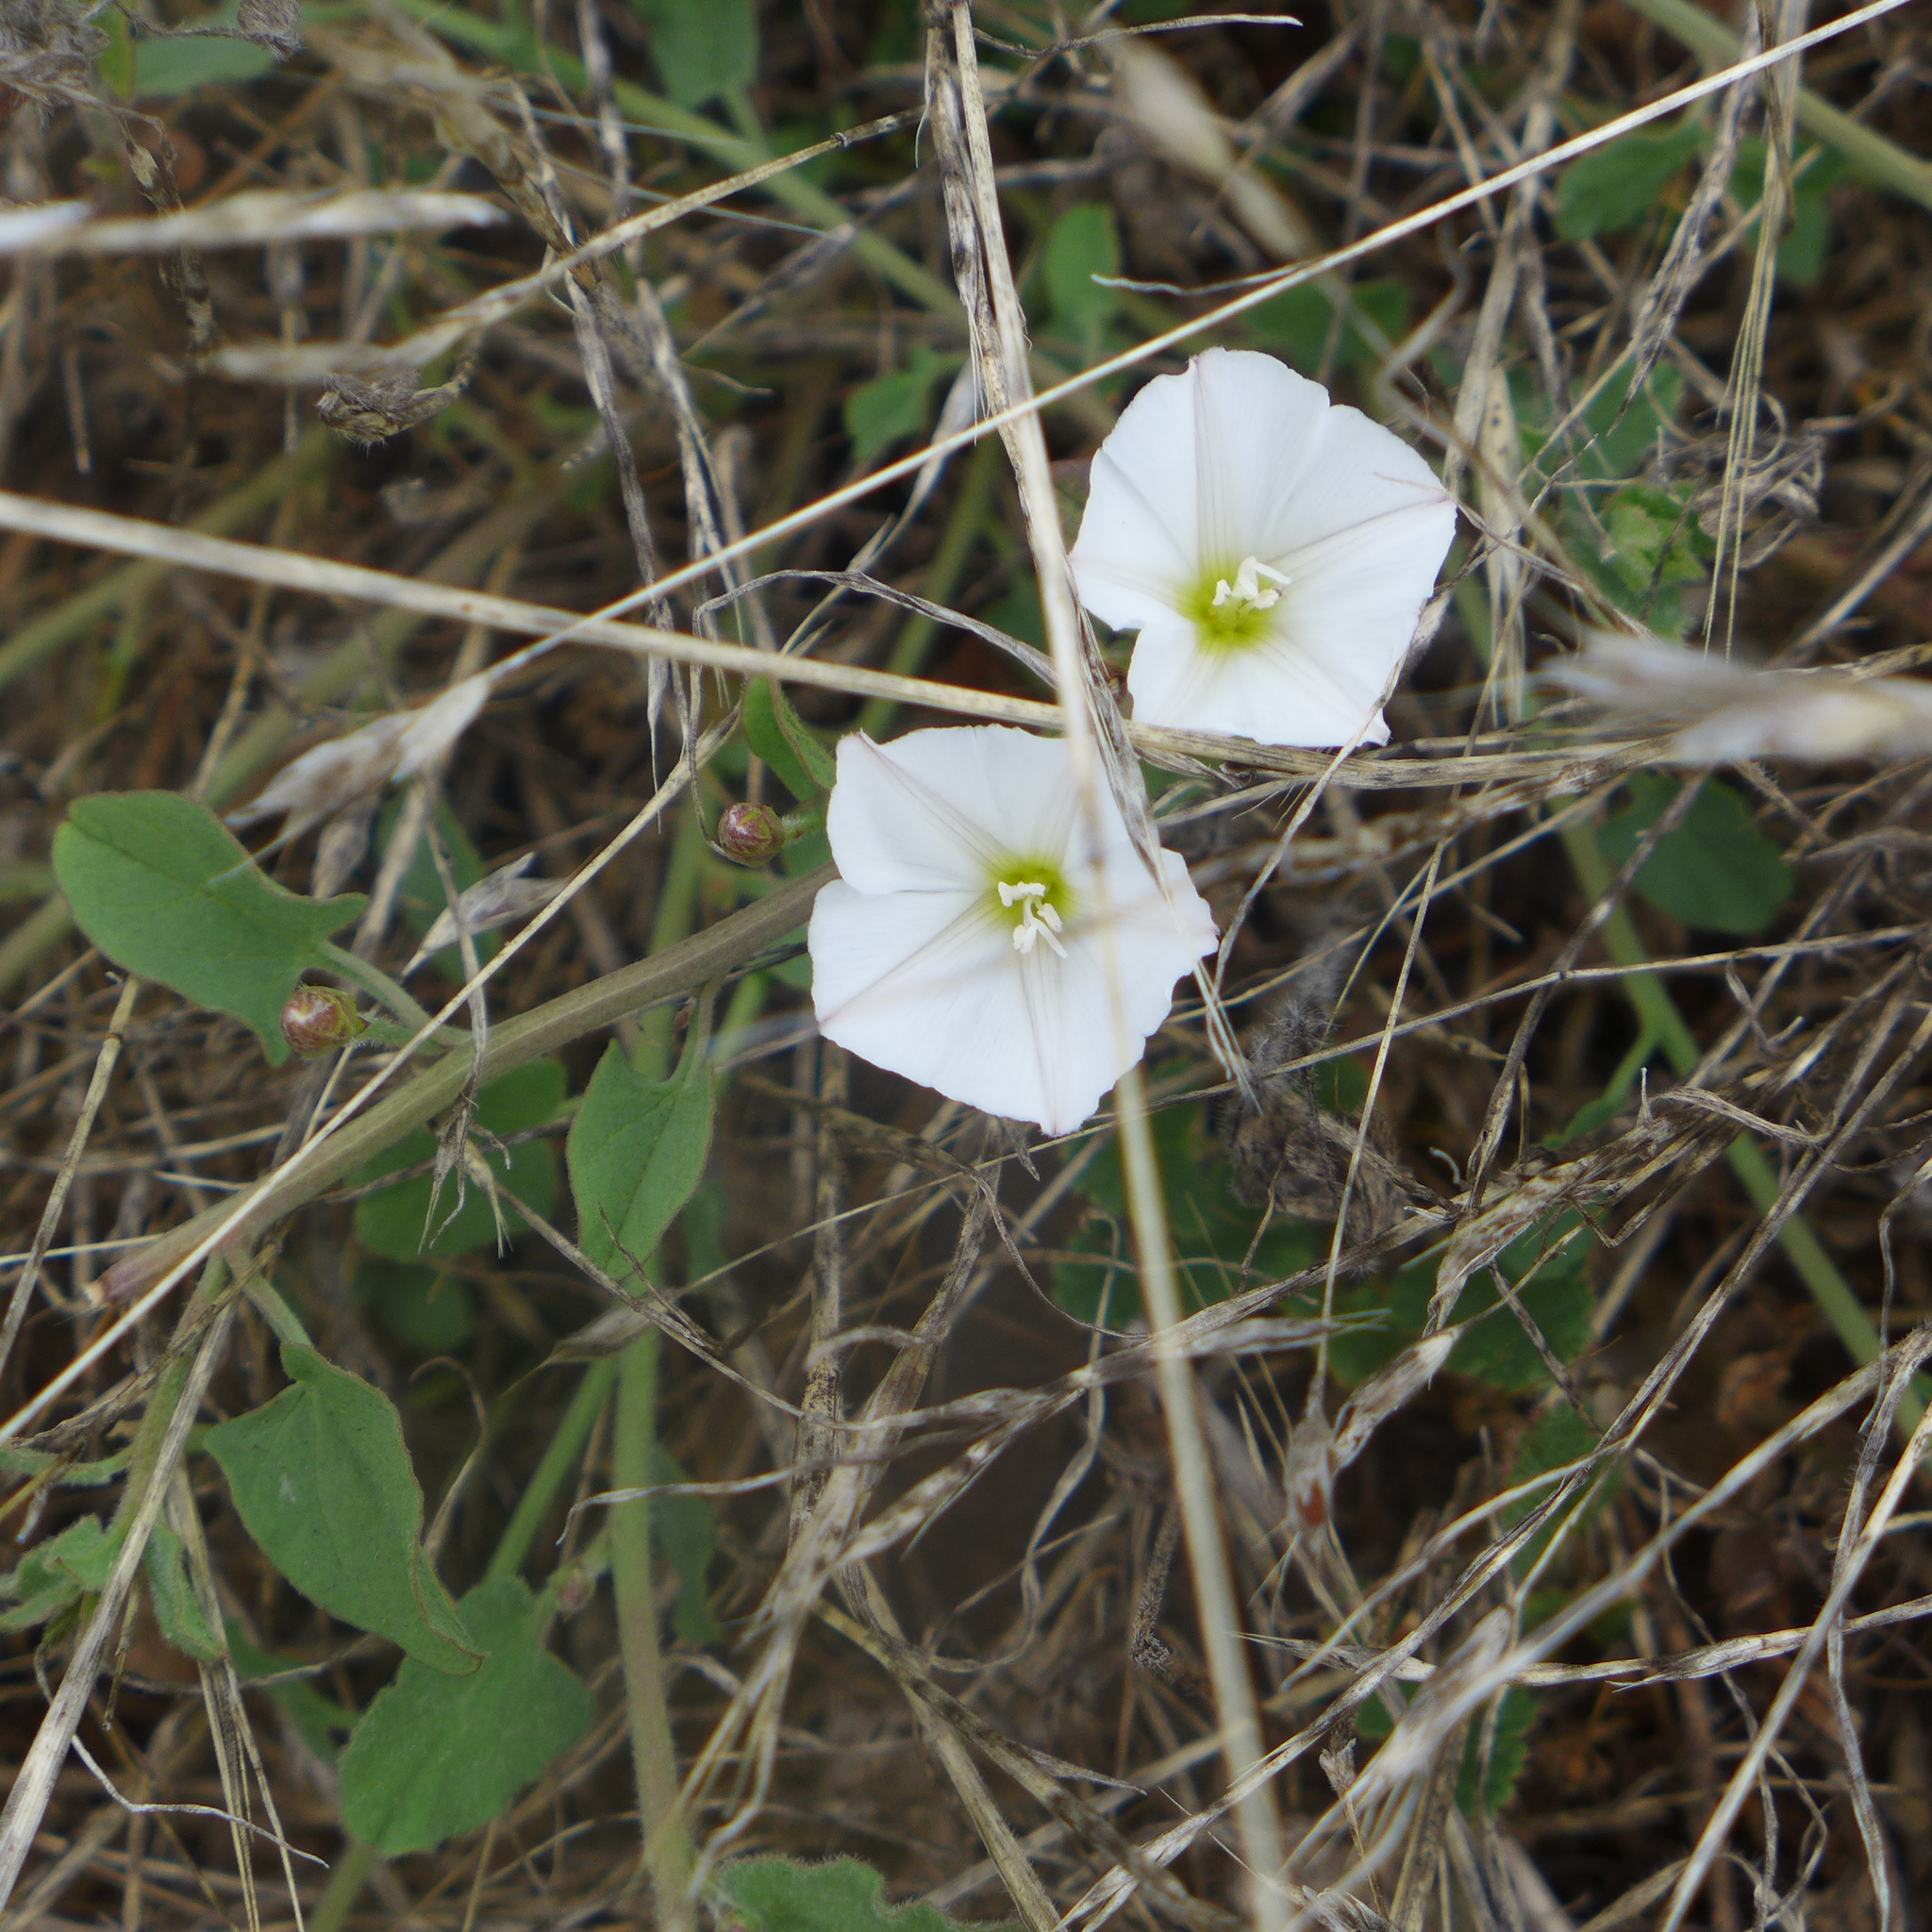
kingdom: Plantae
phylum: Tracheophyta
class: Magnoliopsida
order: Solanales
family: Convolvulaceae
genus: Convolvulus
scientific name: Convolvulus arvensis
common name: Field bindweed
